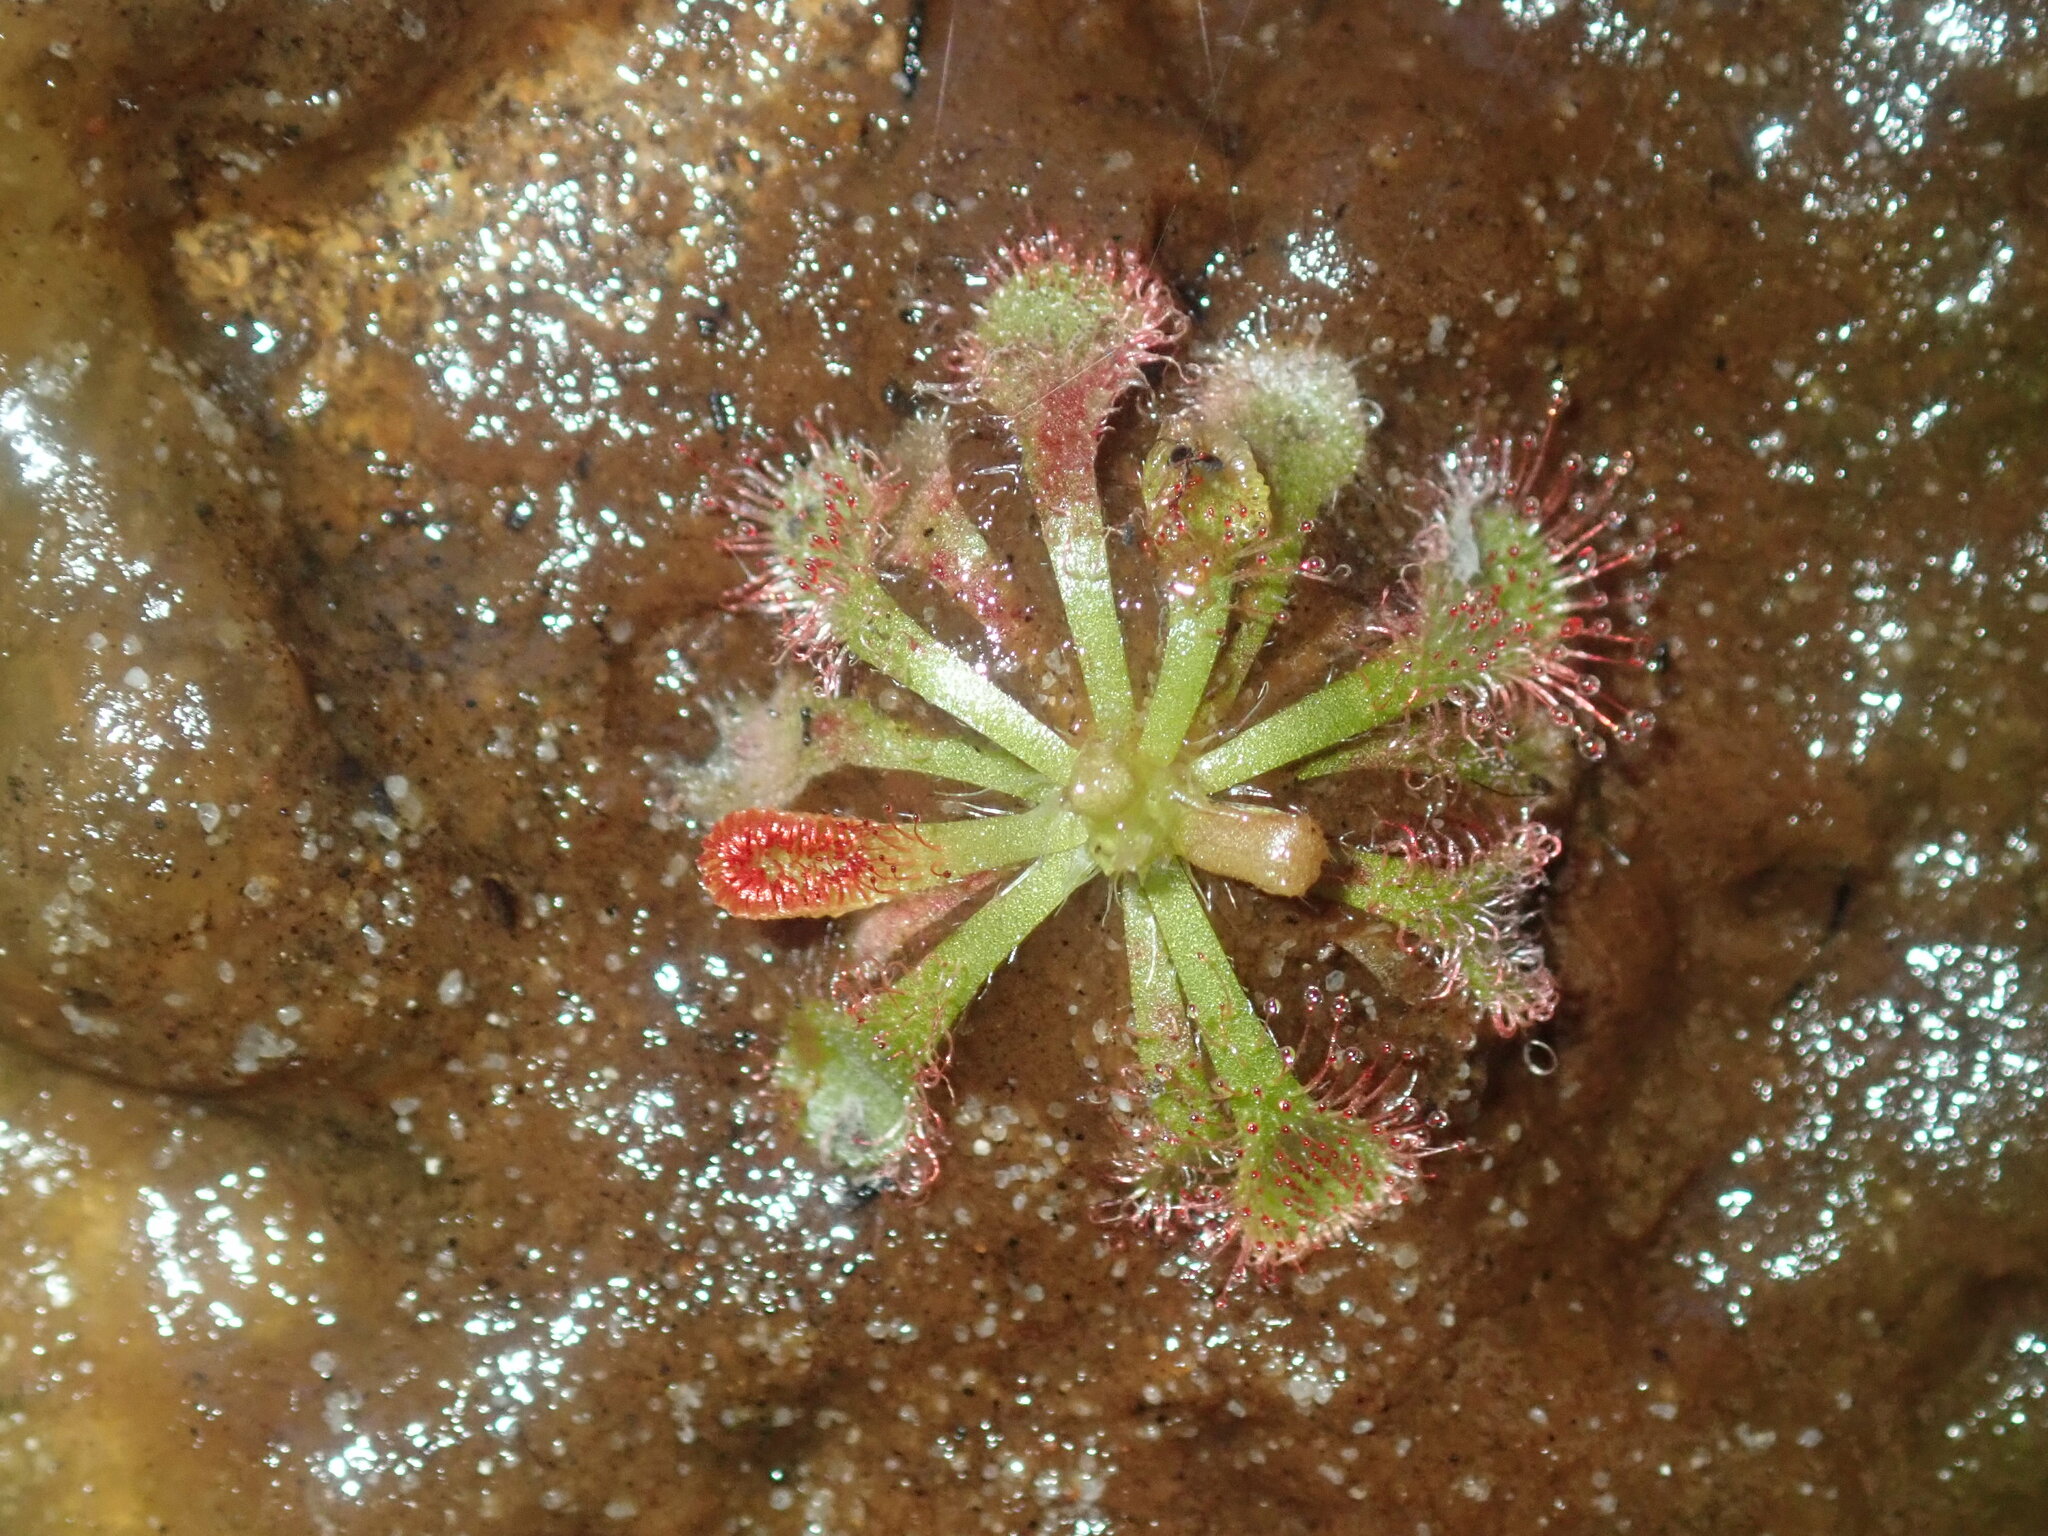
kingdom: Plantae
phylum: Tracheophyta
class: Magnoliopsida
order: Caryophyllales
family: Droseraceae
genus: Drosera
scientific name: Drosera spatulata
